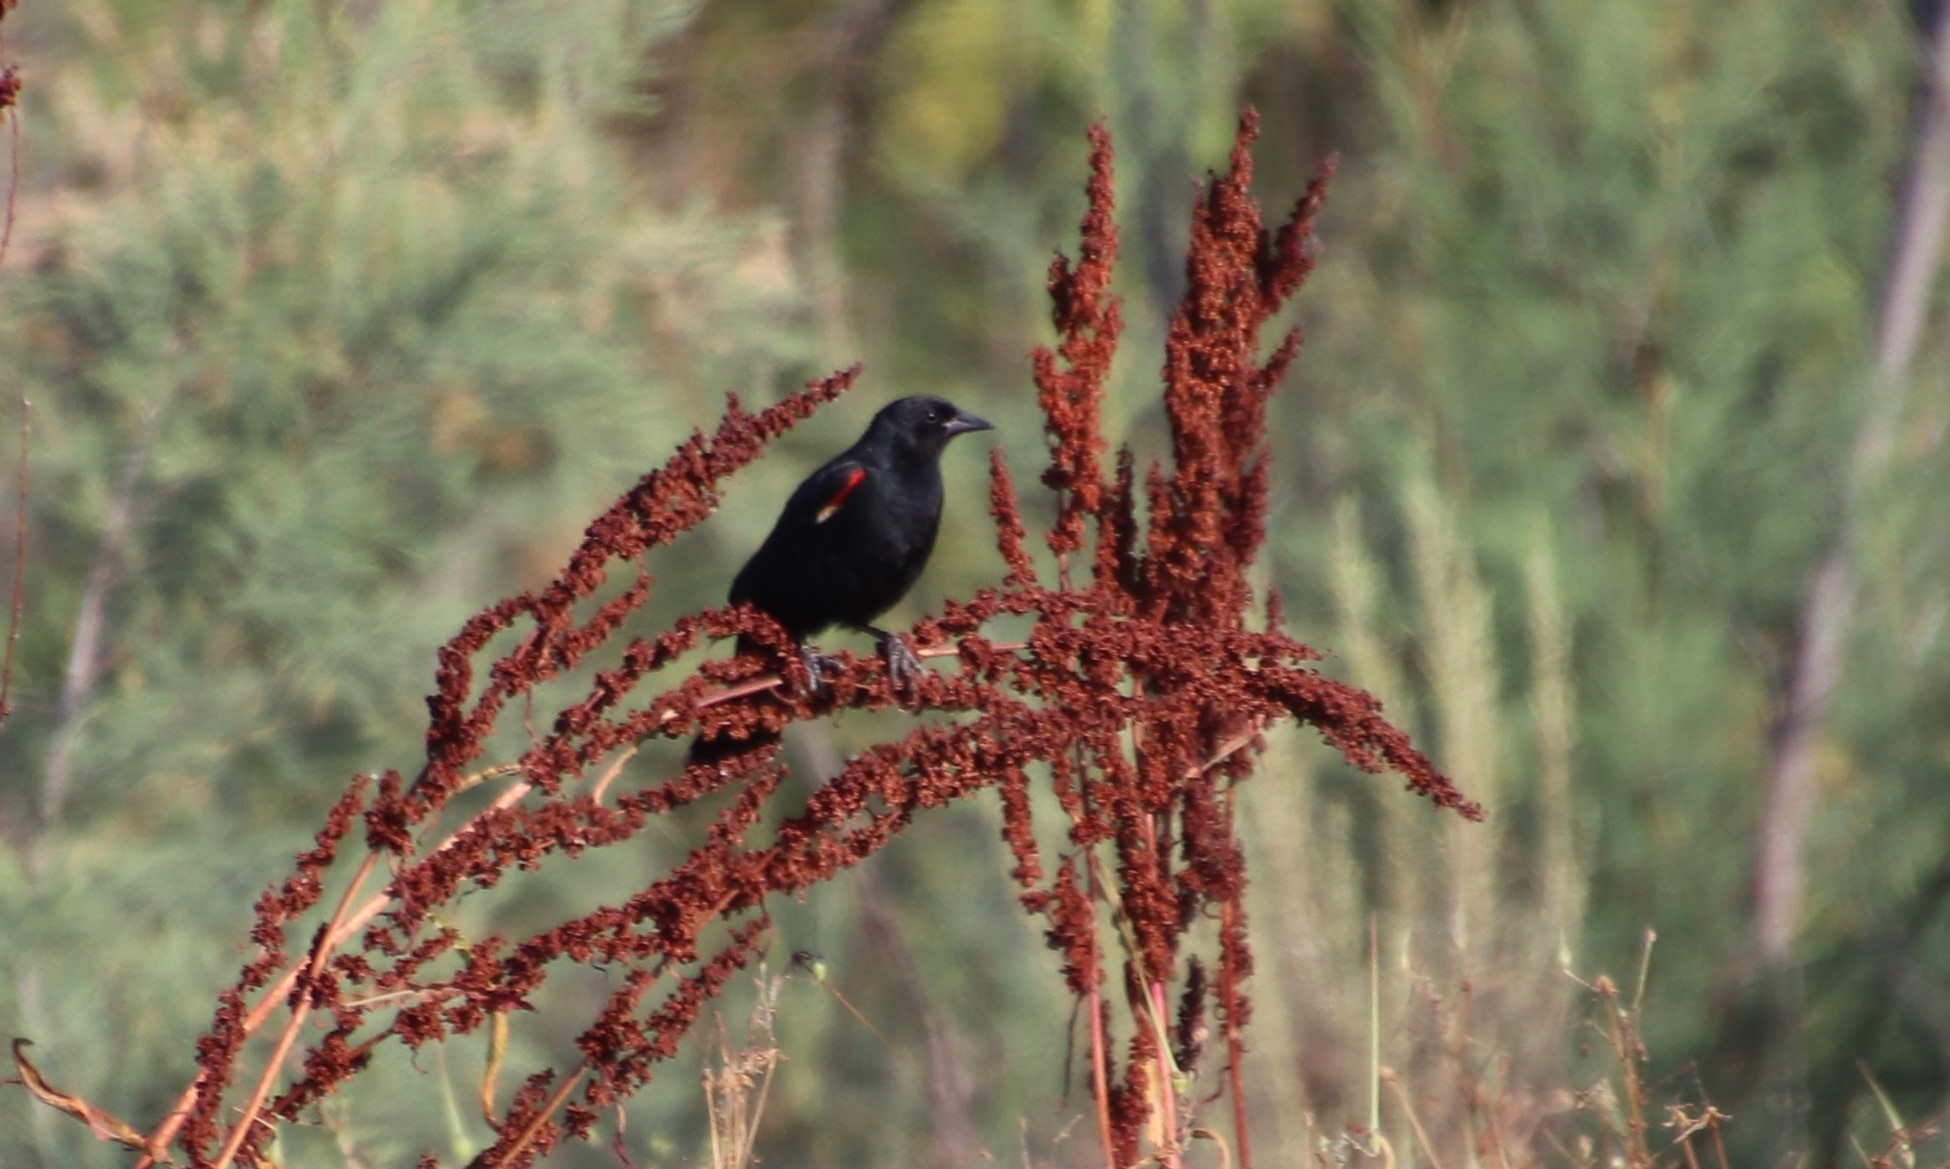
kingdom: Animalia
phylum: Chordata
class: Aves
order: Passeriformes
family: Icteridae
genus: Agelaius
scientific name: Agelaius phoeniceus
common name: Red-winged blackbird
